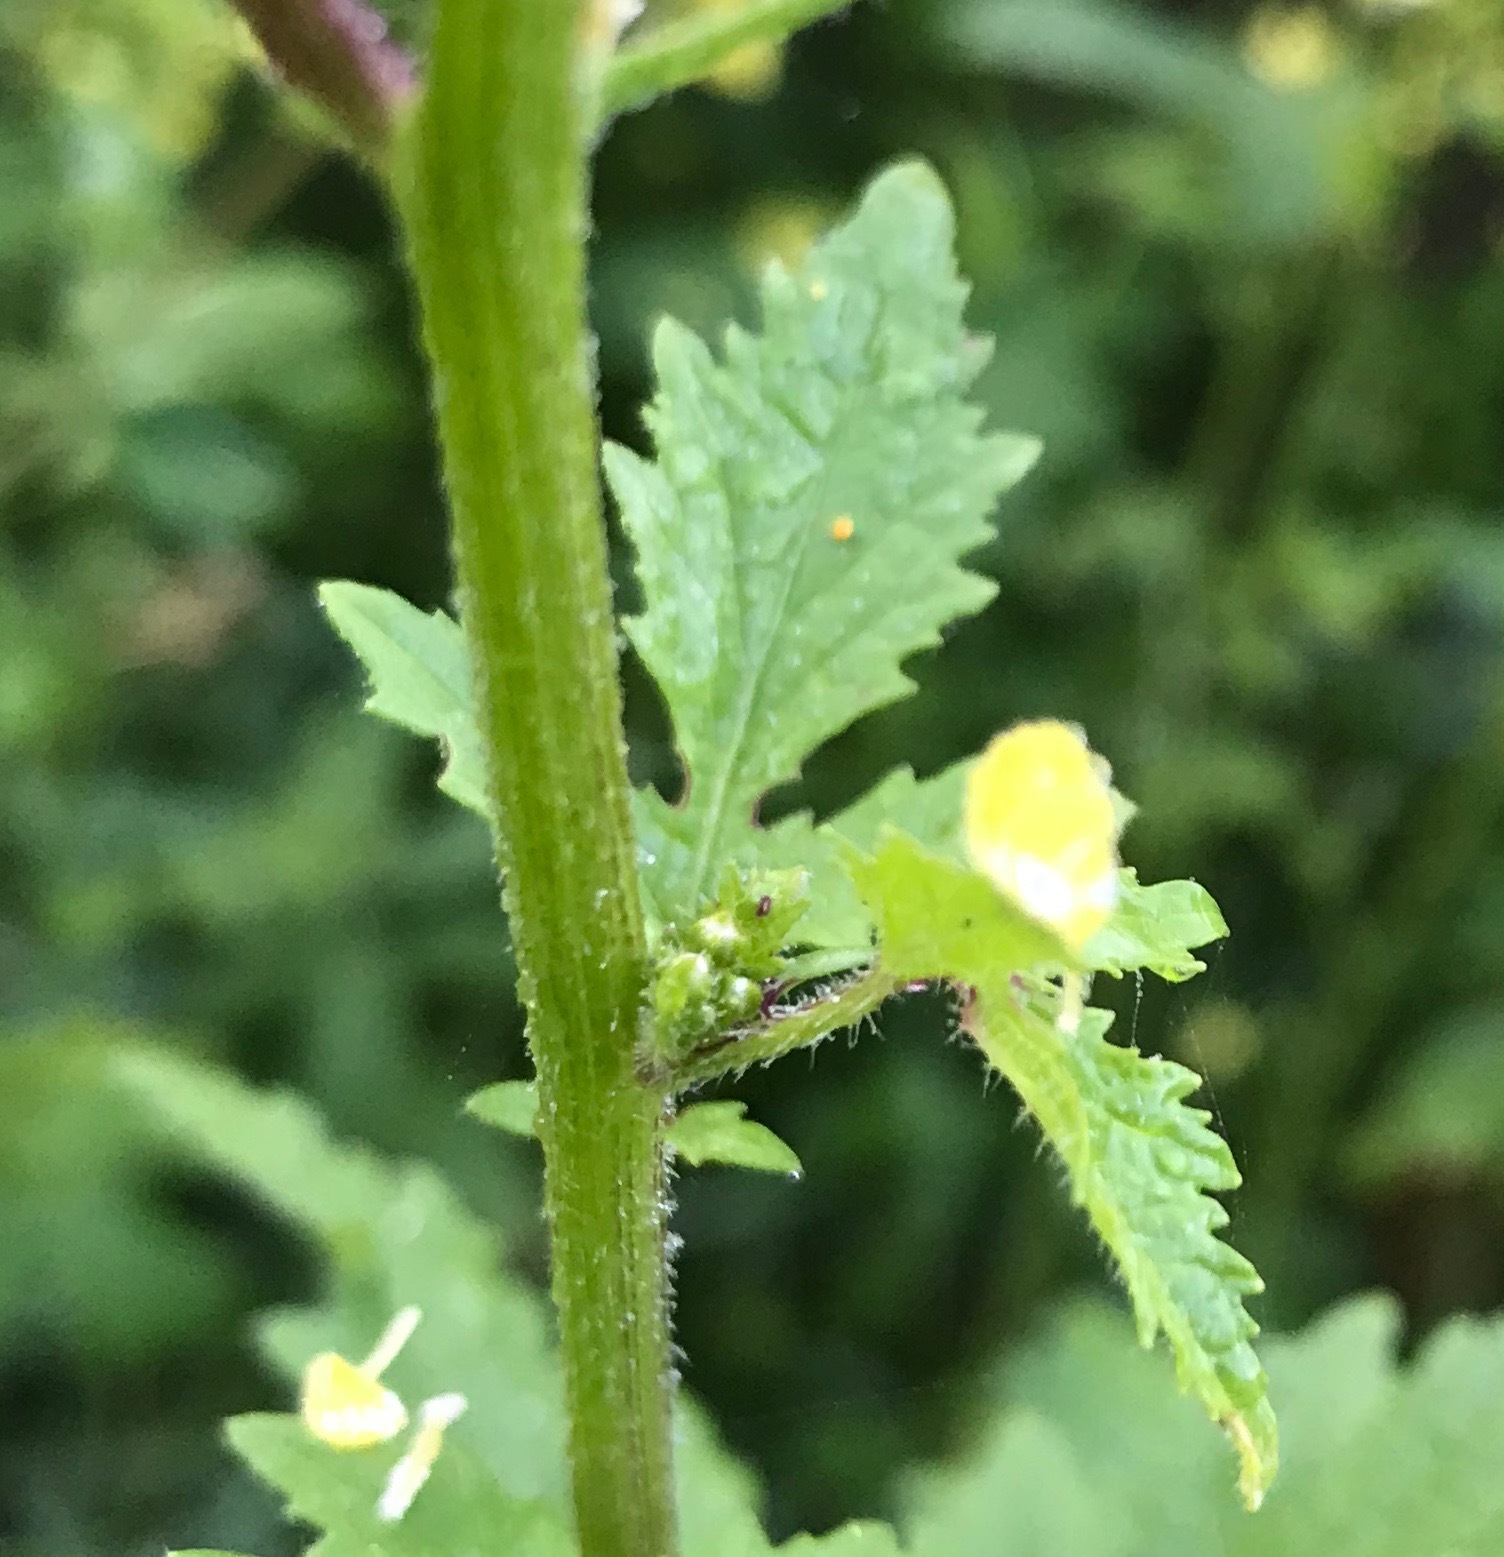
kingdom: Plantae
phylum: Tracheophyta
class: Magnoliopsida
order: Brassicales
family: Brassicaceae
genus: Sinapis
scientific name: Sinapis alba
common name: White mustard
